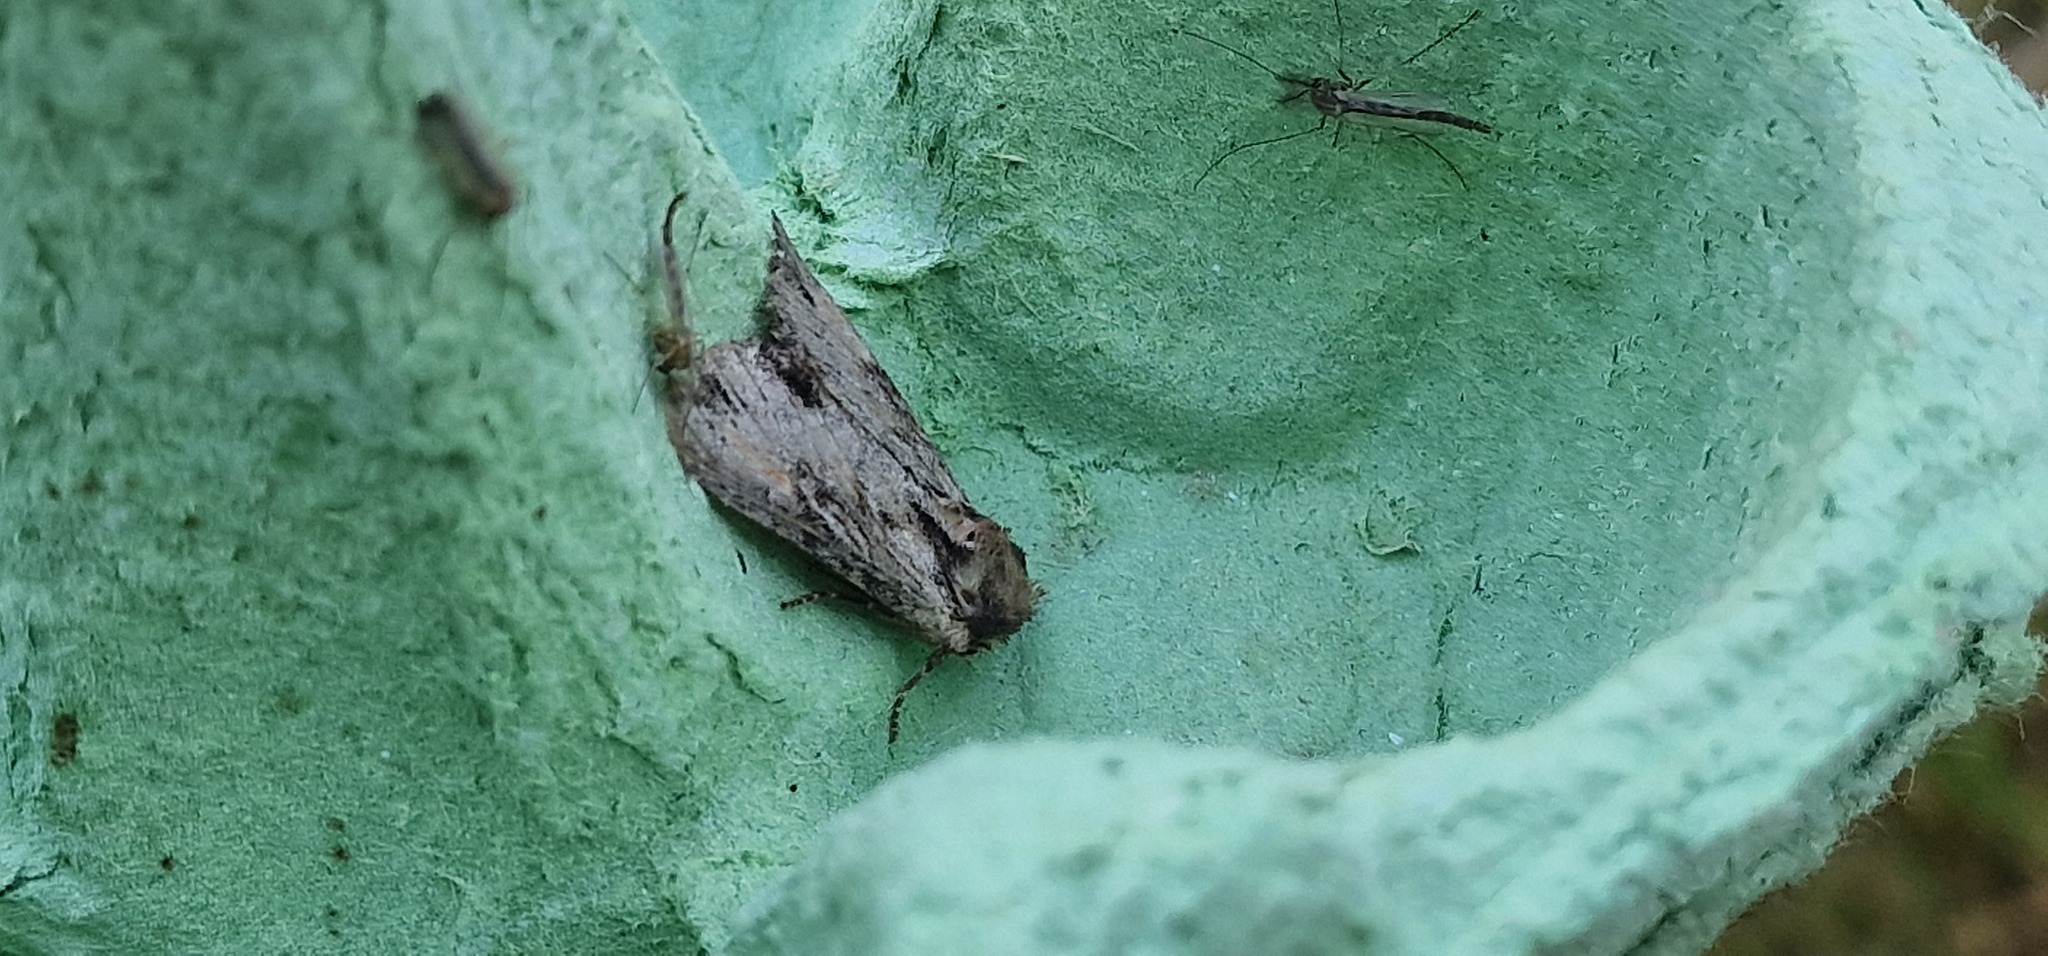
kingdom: Animalia
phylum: Arthropoda
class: Insecta
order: Lepidoptera
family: Noctuidae
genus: Apamea
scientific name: Apamea crenata
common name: Clouded-bordered brindle
